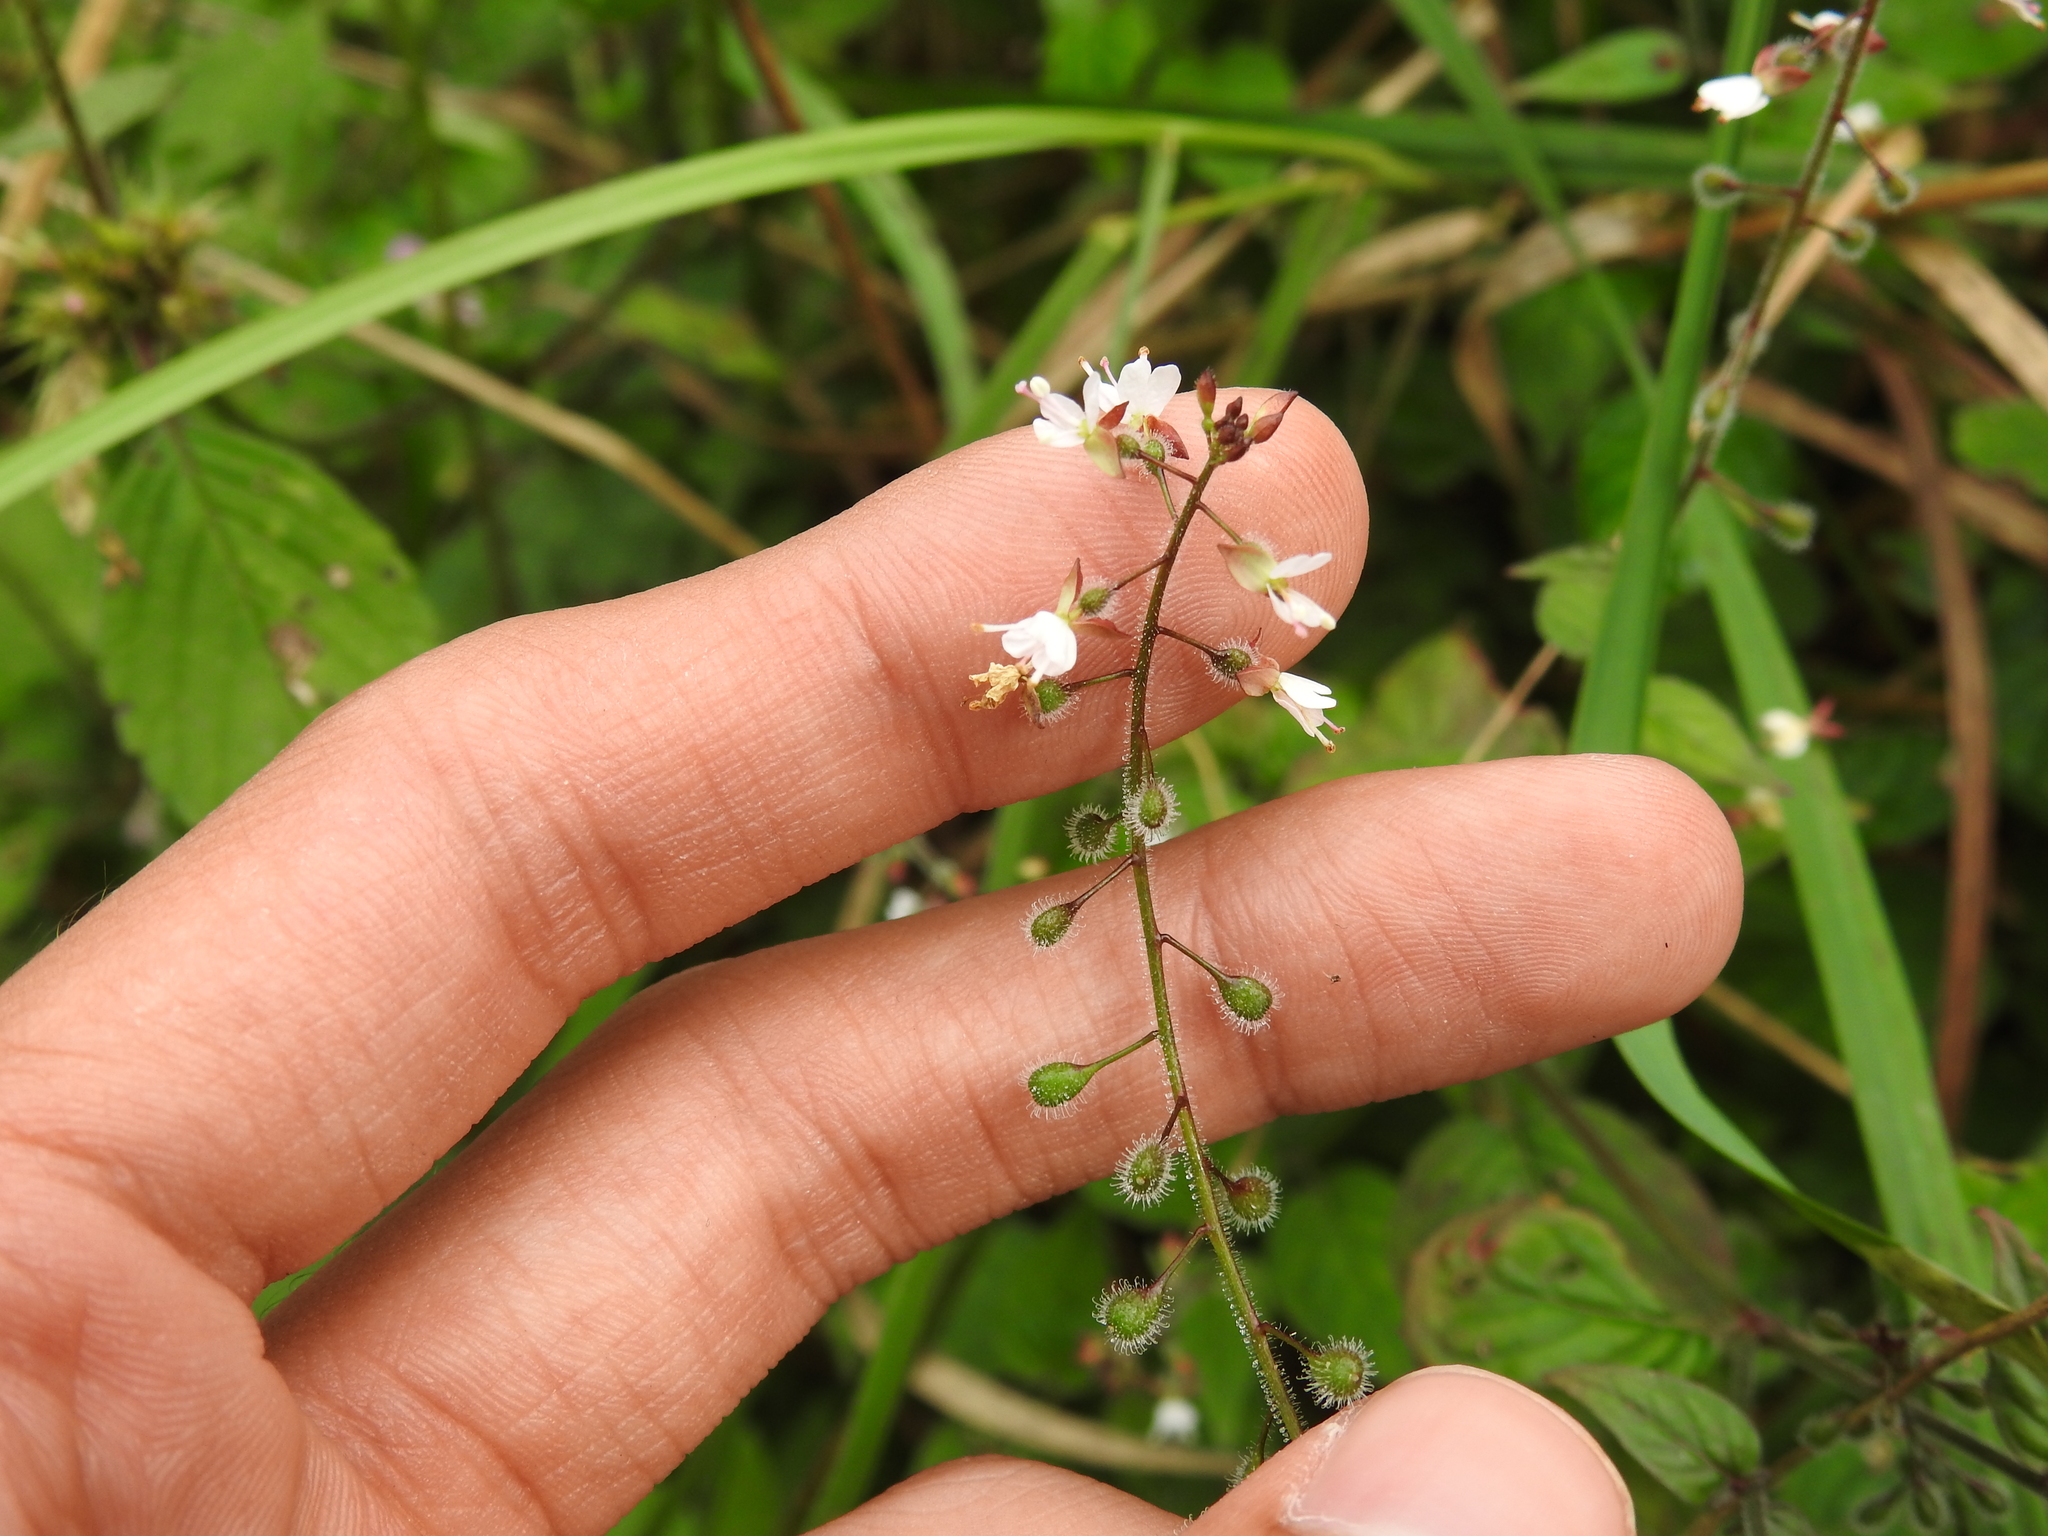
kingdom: Plantae
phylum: Tracheophyta
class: Magnoliopsida
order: Myrtales
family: Onagraceae
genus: Circaea
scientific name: Circaea lutetiana
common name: Enchanter's-nightshade
